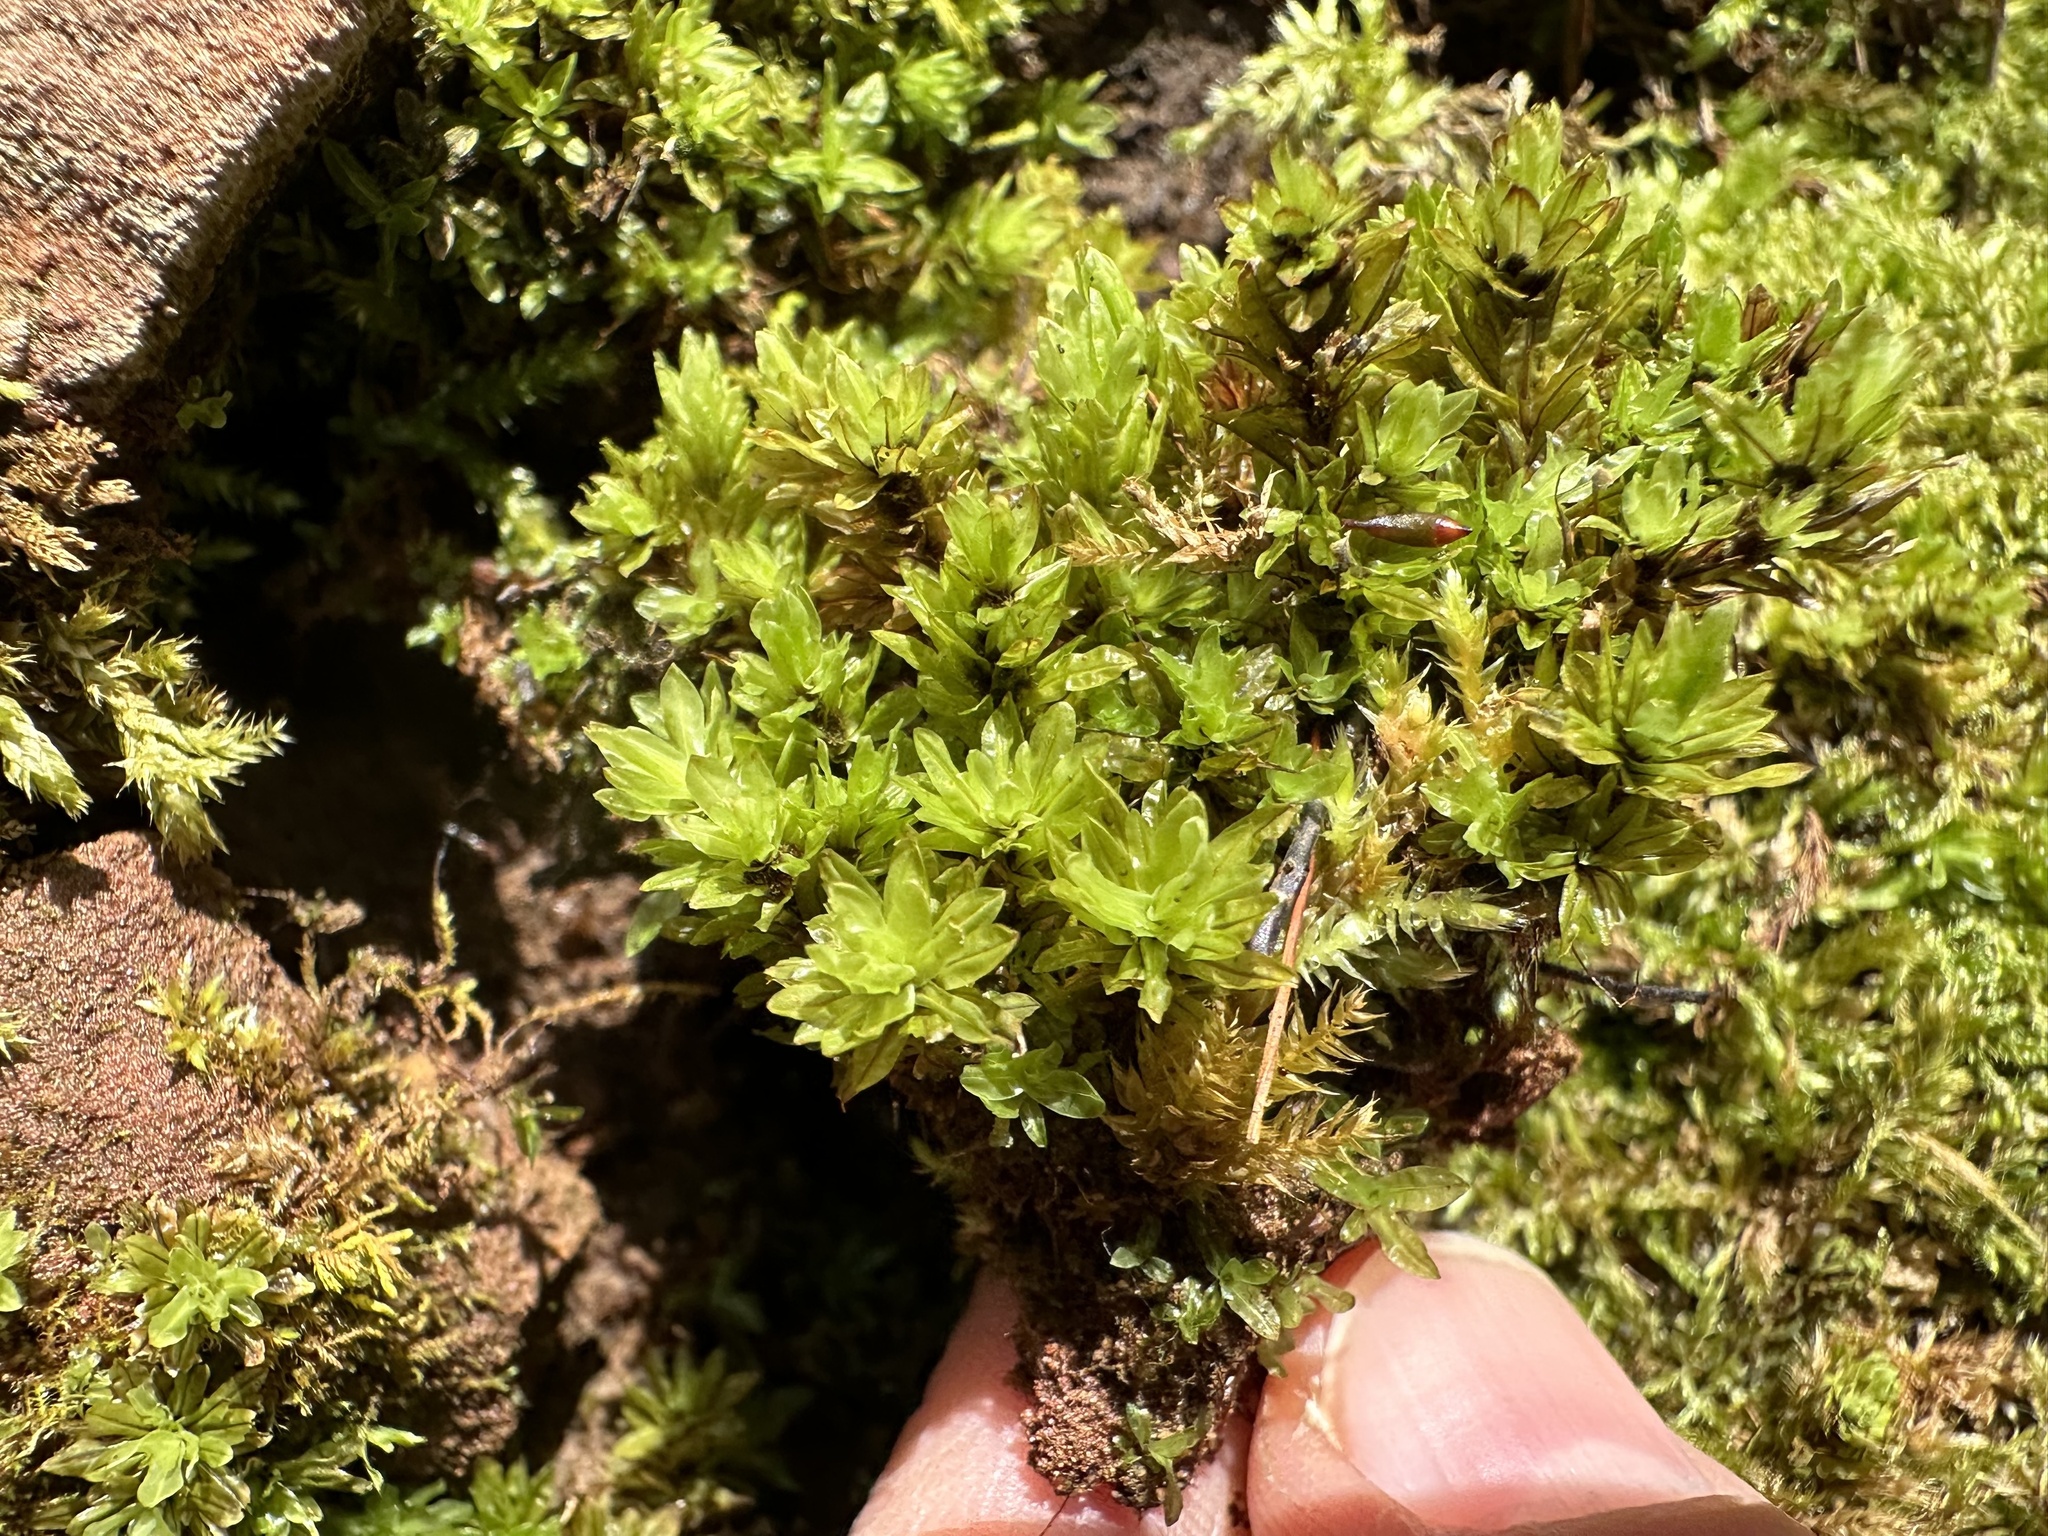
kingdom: Plantae
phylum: Bryophyta
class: Bryopsida
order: Encalyptales
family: Encalyptaceae
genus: Encalypta
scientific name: Encalypta streptocarpa
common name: Spiral extinguisher-moss
